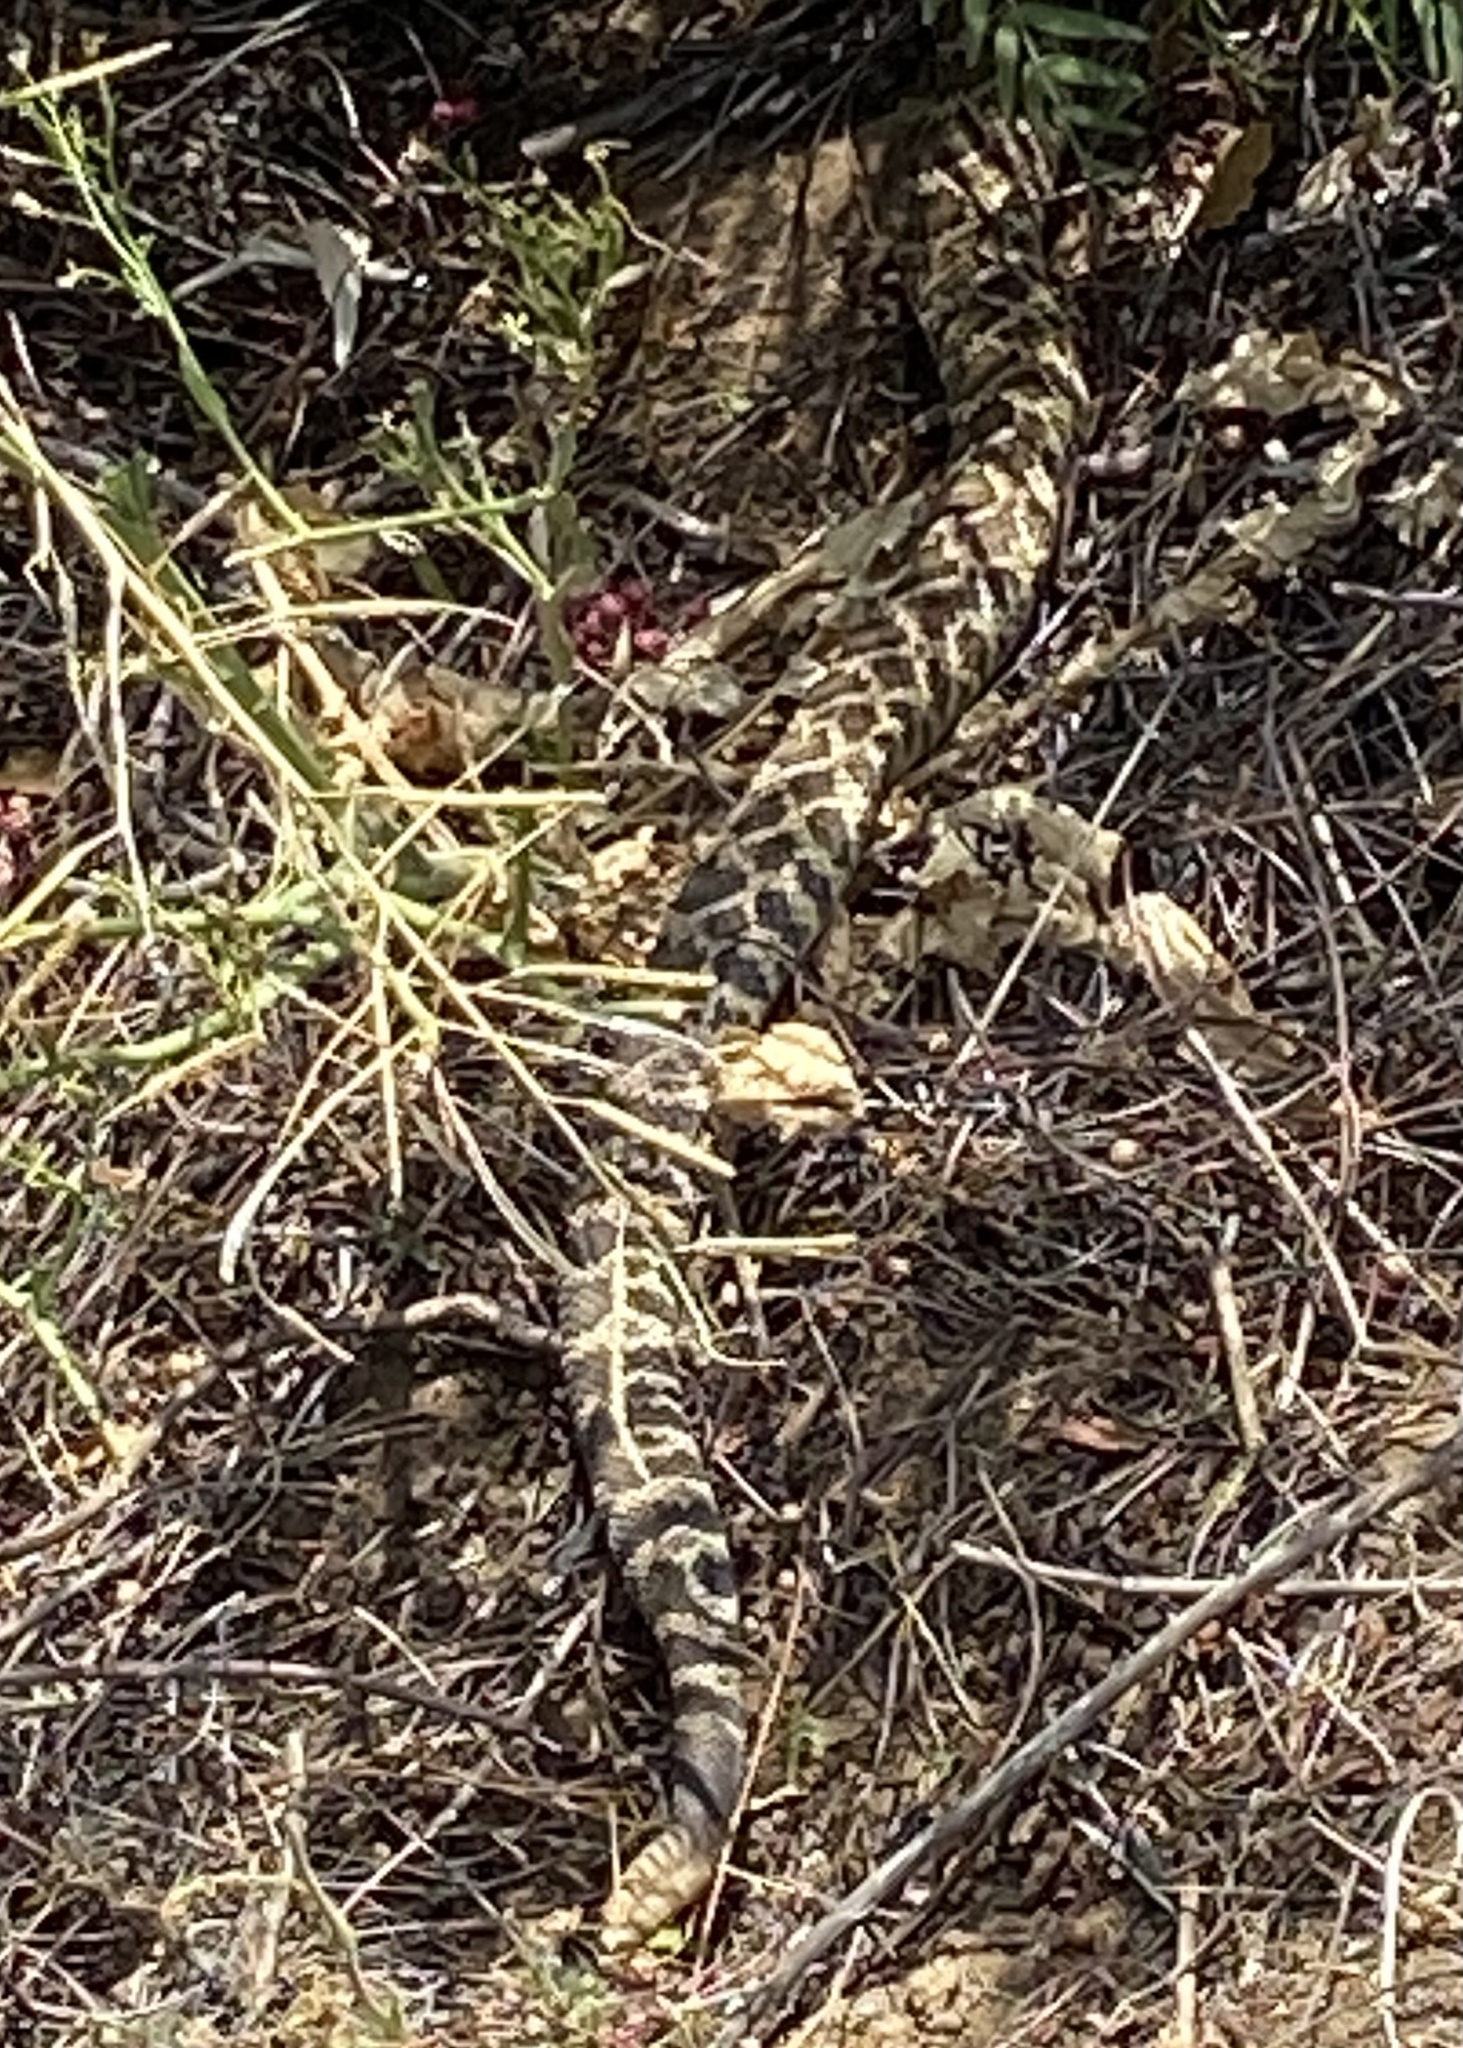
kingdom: Animalia
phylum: Chordata
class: Squamata
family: Viperidae
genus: Crotalus
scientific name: Crotalus oreganus
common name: Abyssus
